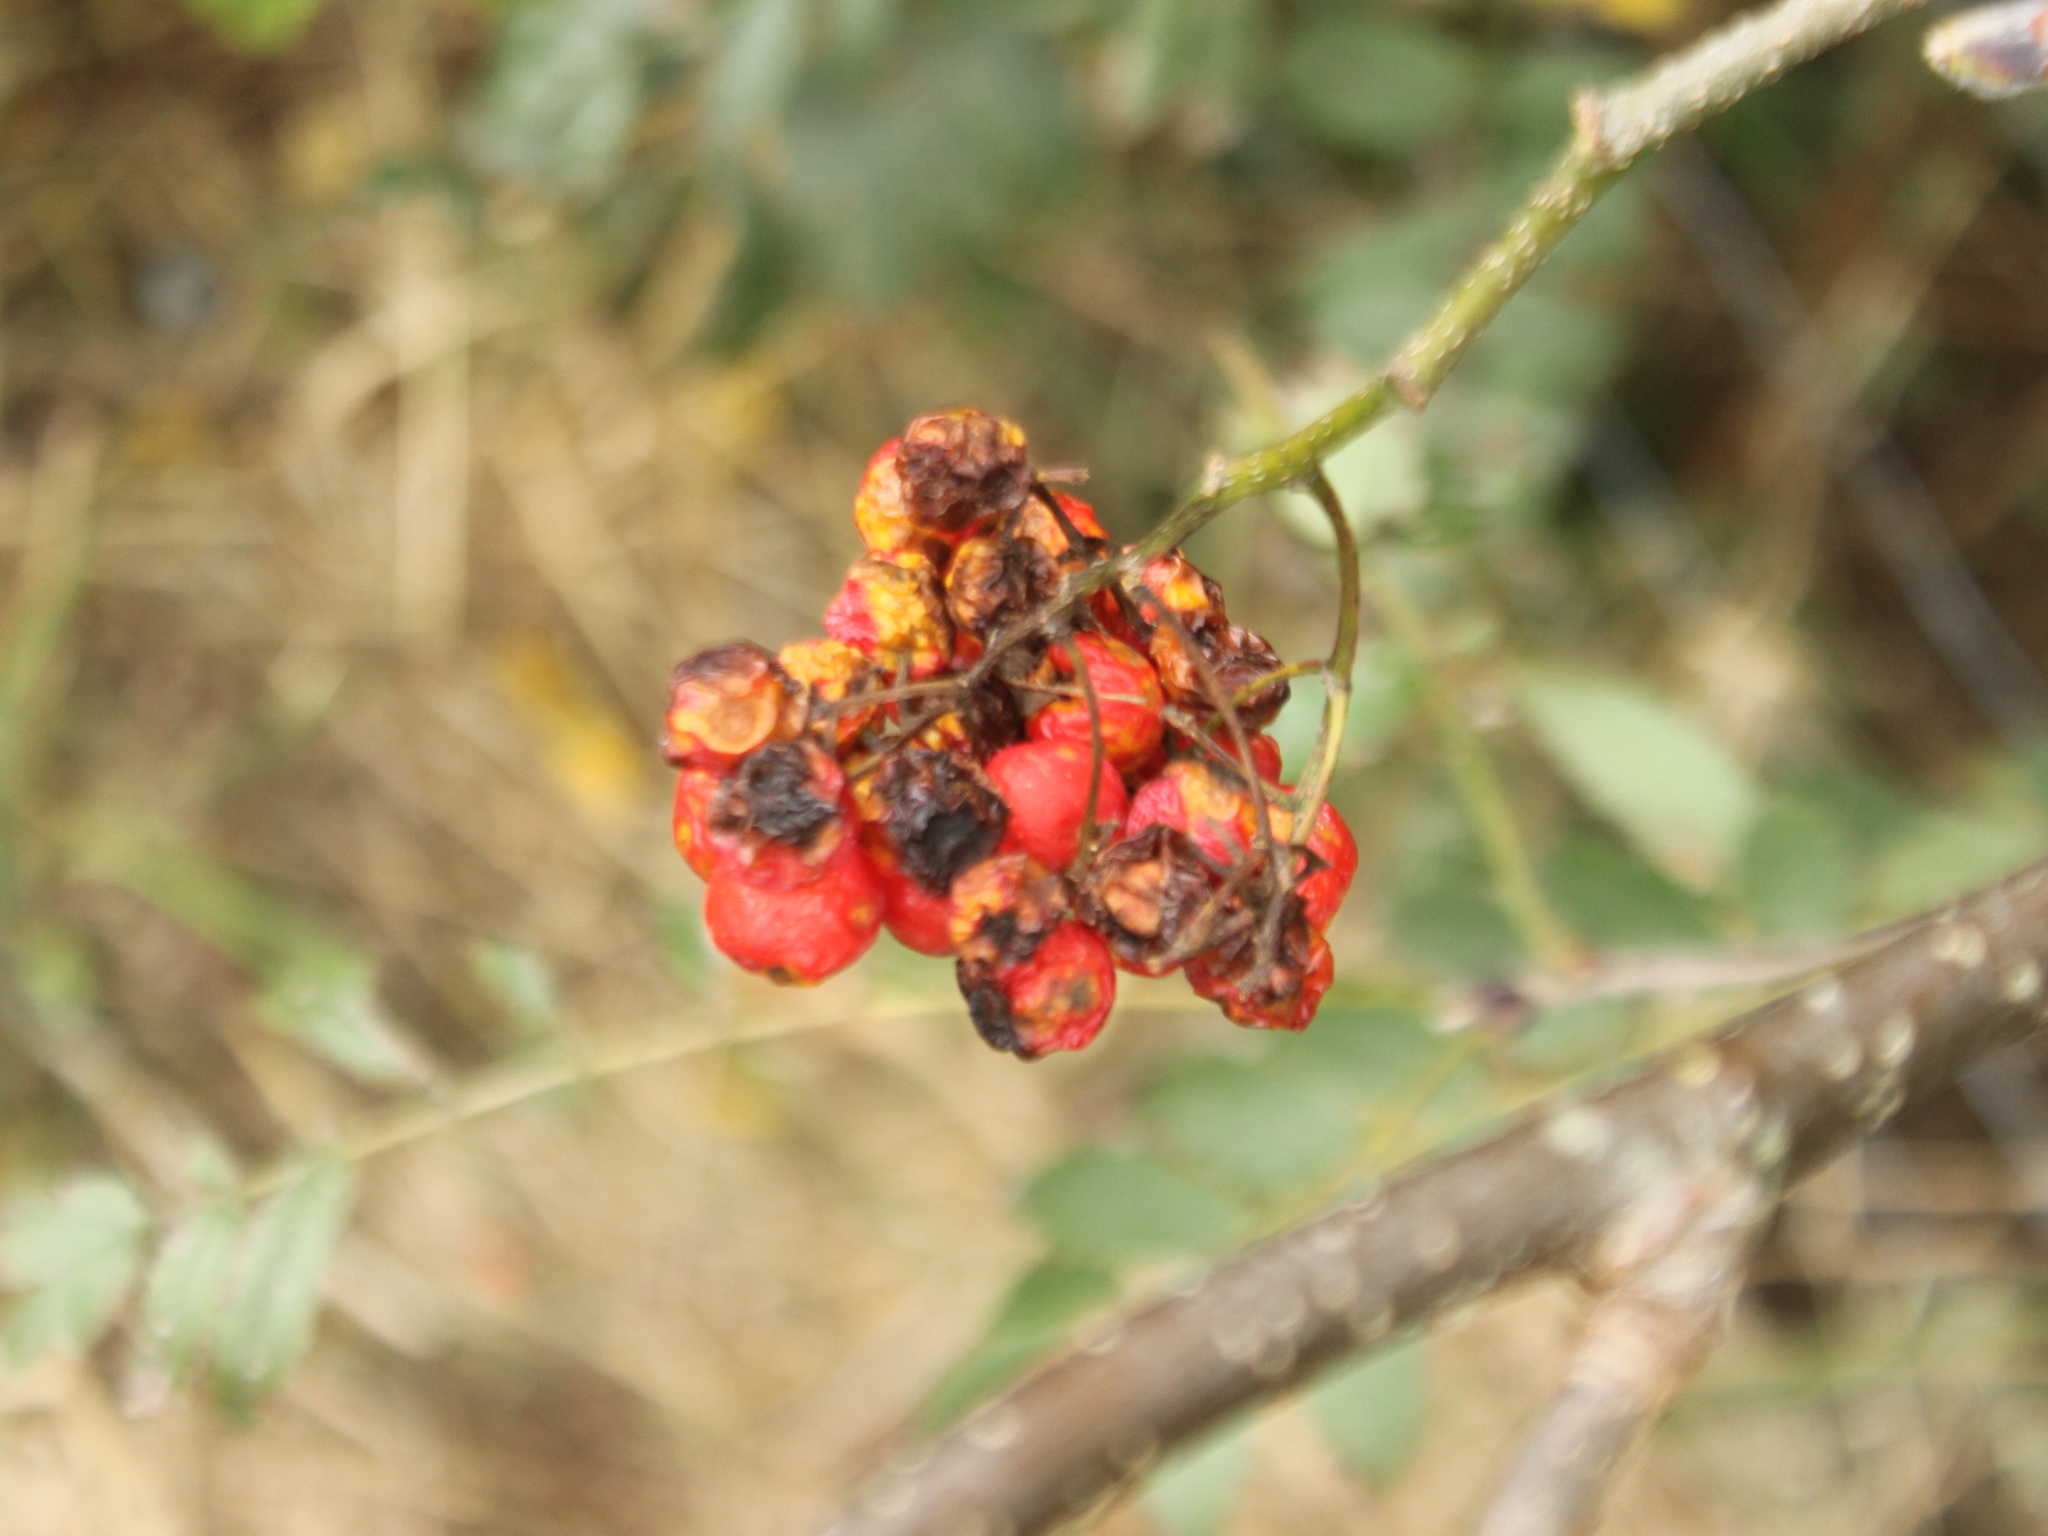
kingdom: Plantae
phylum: Tracheophyta
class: Magnoliopsida
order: Rosales
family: Rosaceae
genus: Sorbus
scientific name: Sorbus aucuparia
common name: Rowan
